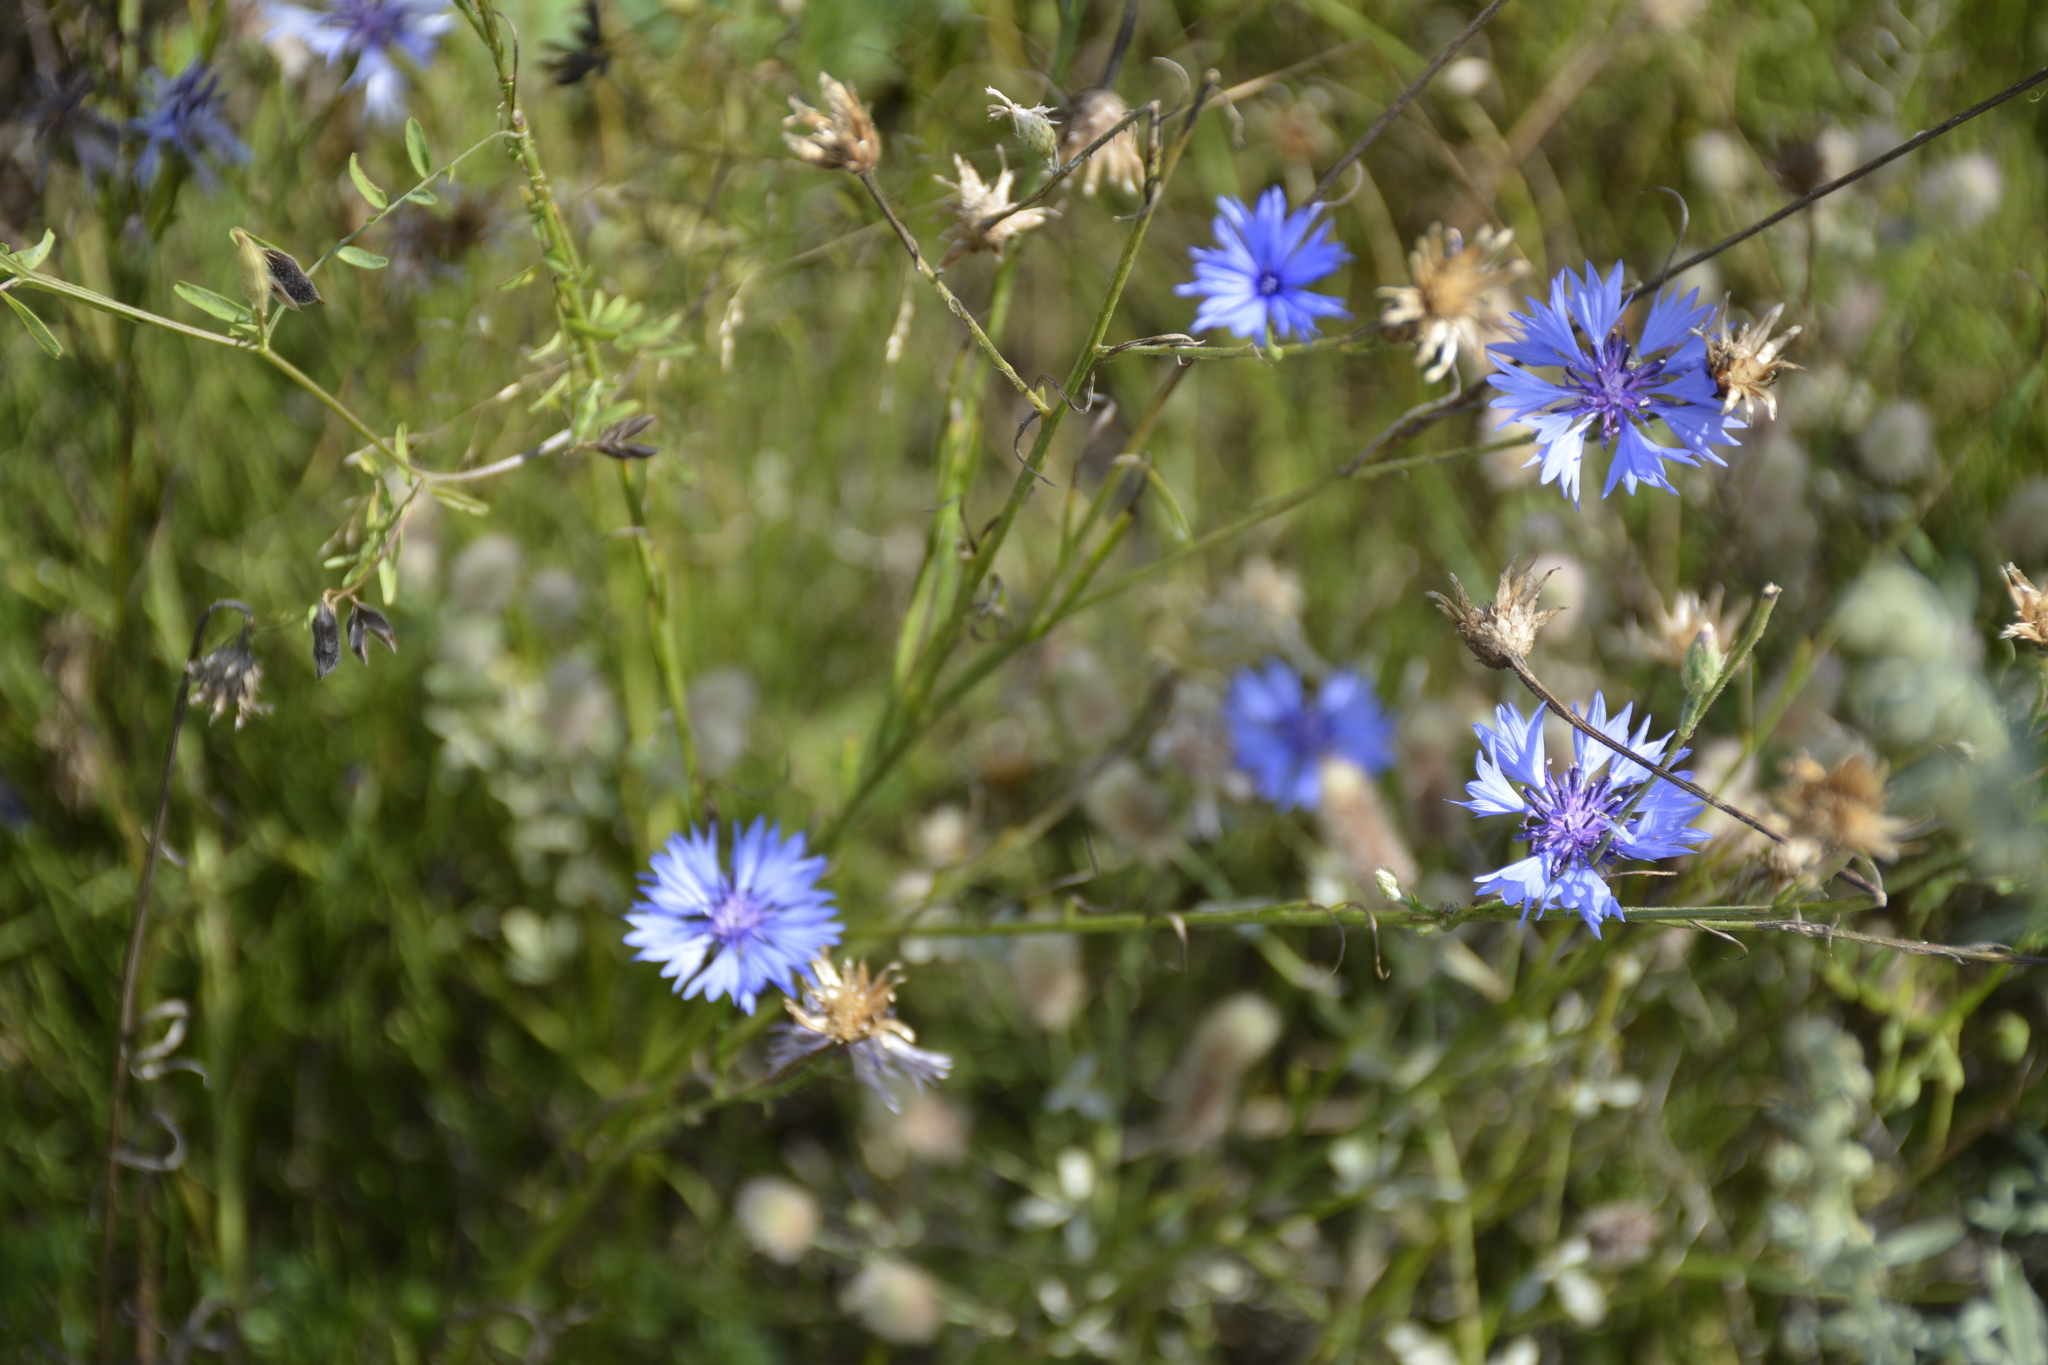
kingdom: Plantae
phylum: Tracheophyta
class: Magnoliopsida
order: Asterales
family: Asteraceae
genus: Centaurea
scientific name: Centaurea cyanus
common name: Cornflower
